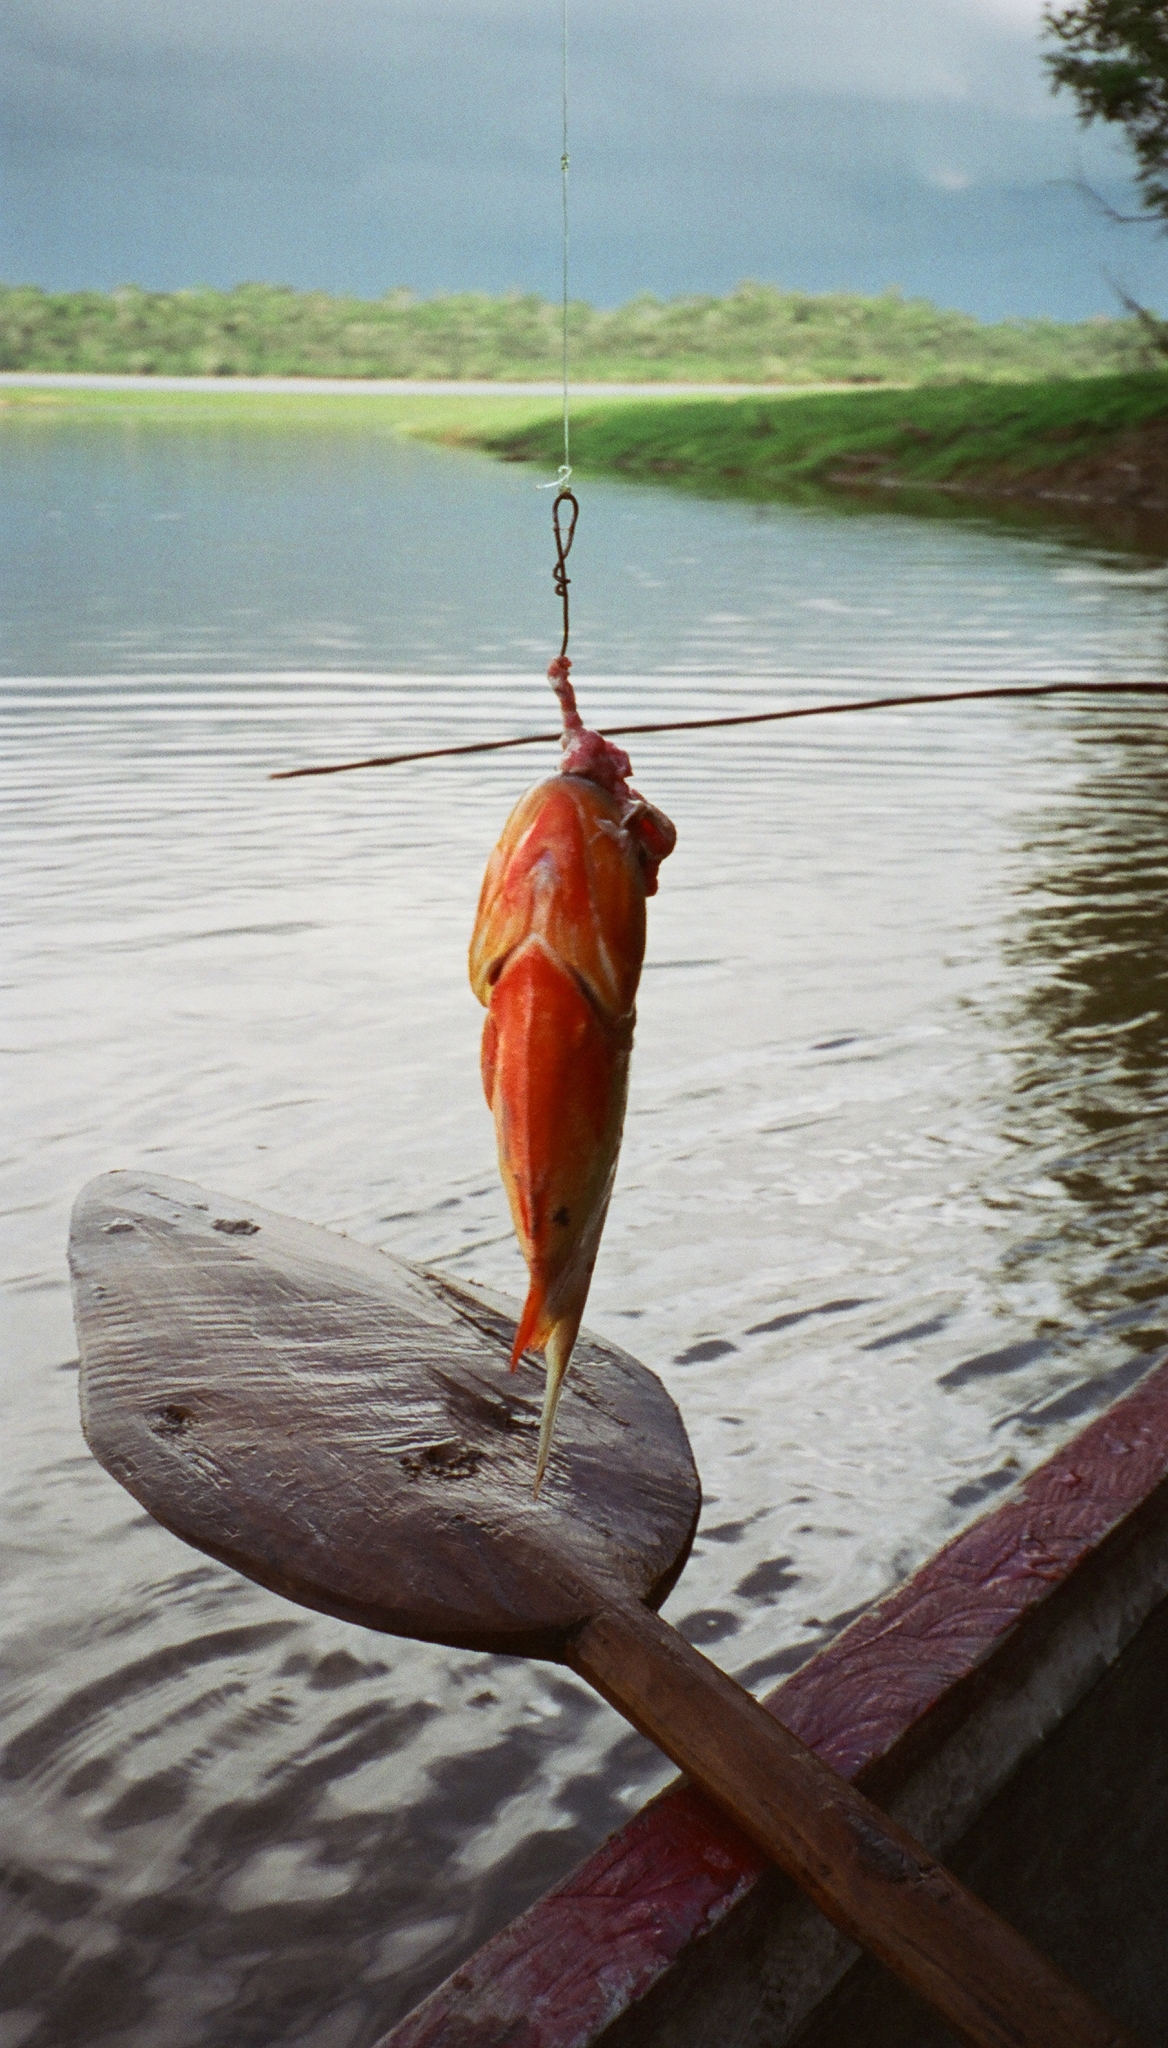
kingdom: Animalia
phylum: Chordata
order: Characiformes
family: Serrasalmidae
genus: Pygocentrus
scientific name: Pygocentrus nattereri
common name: Piranha
